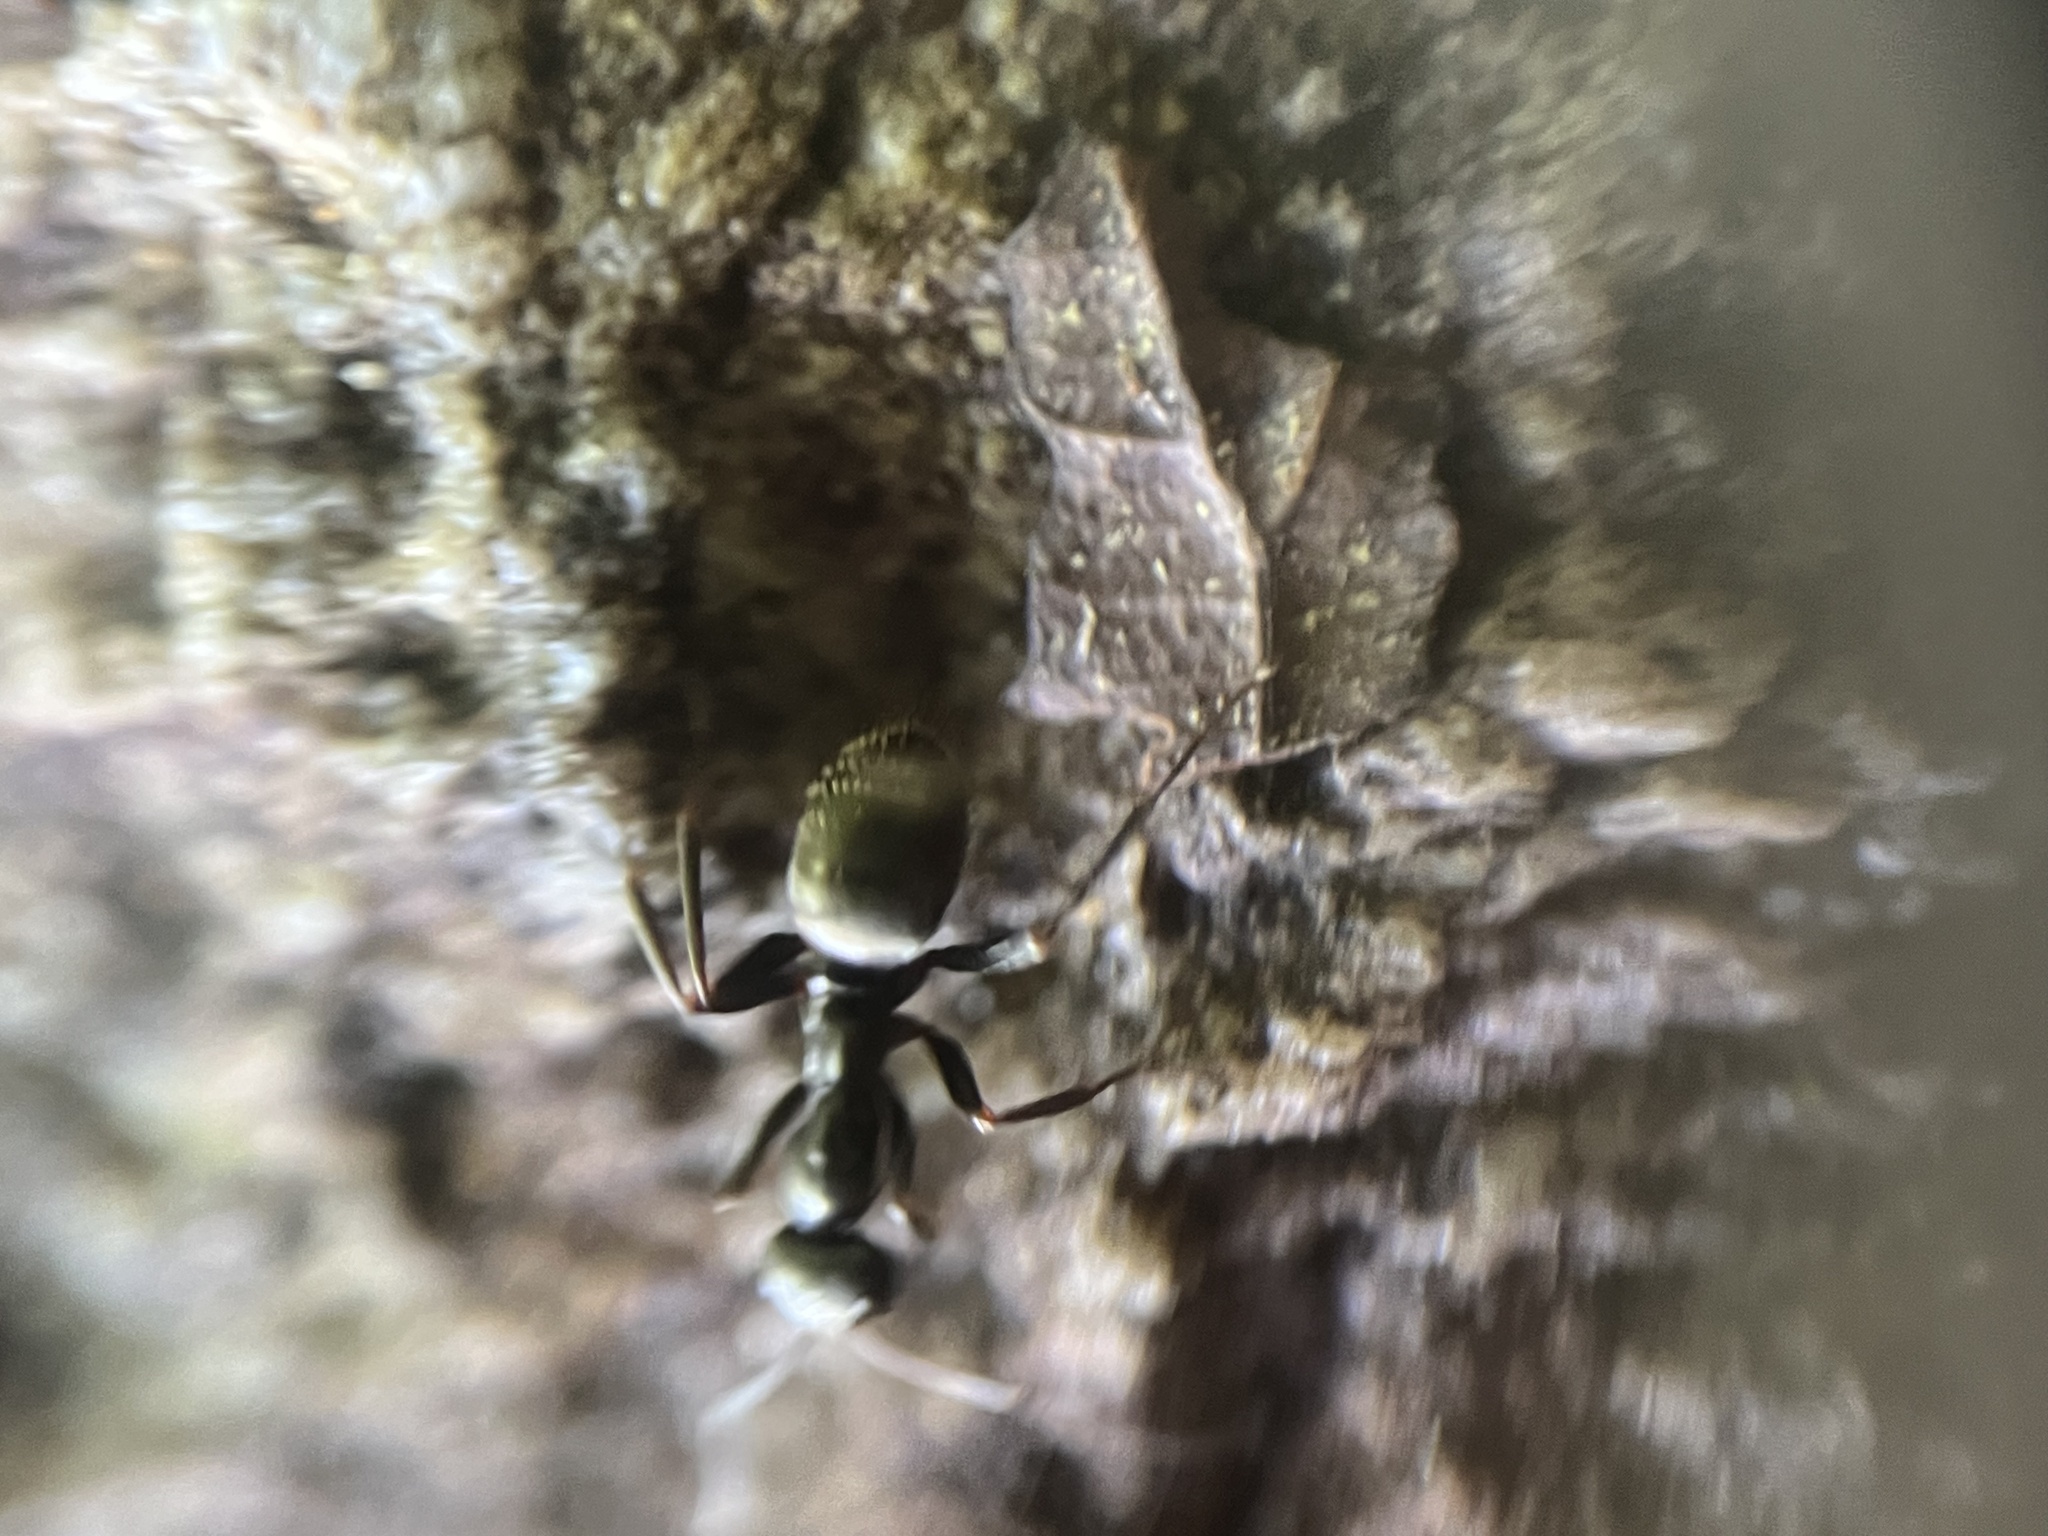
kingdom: Animalia
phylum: Arthropoda
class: Insecta
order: Hymenoptera
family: Formicidae
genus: Camponotus
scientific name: Camponotus pennsylvanicus
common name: Black carpenter ant
